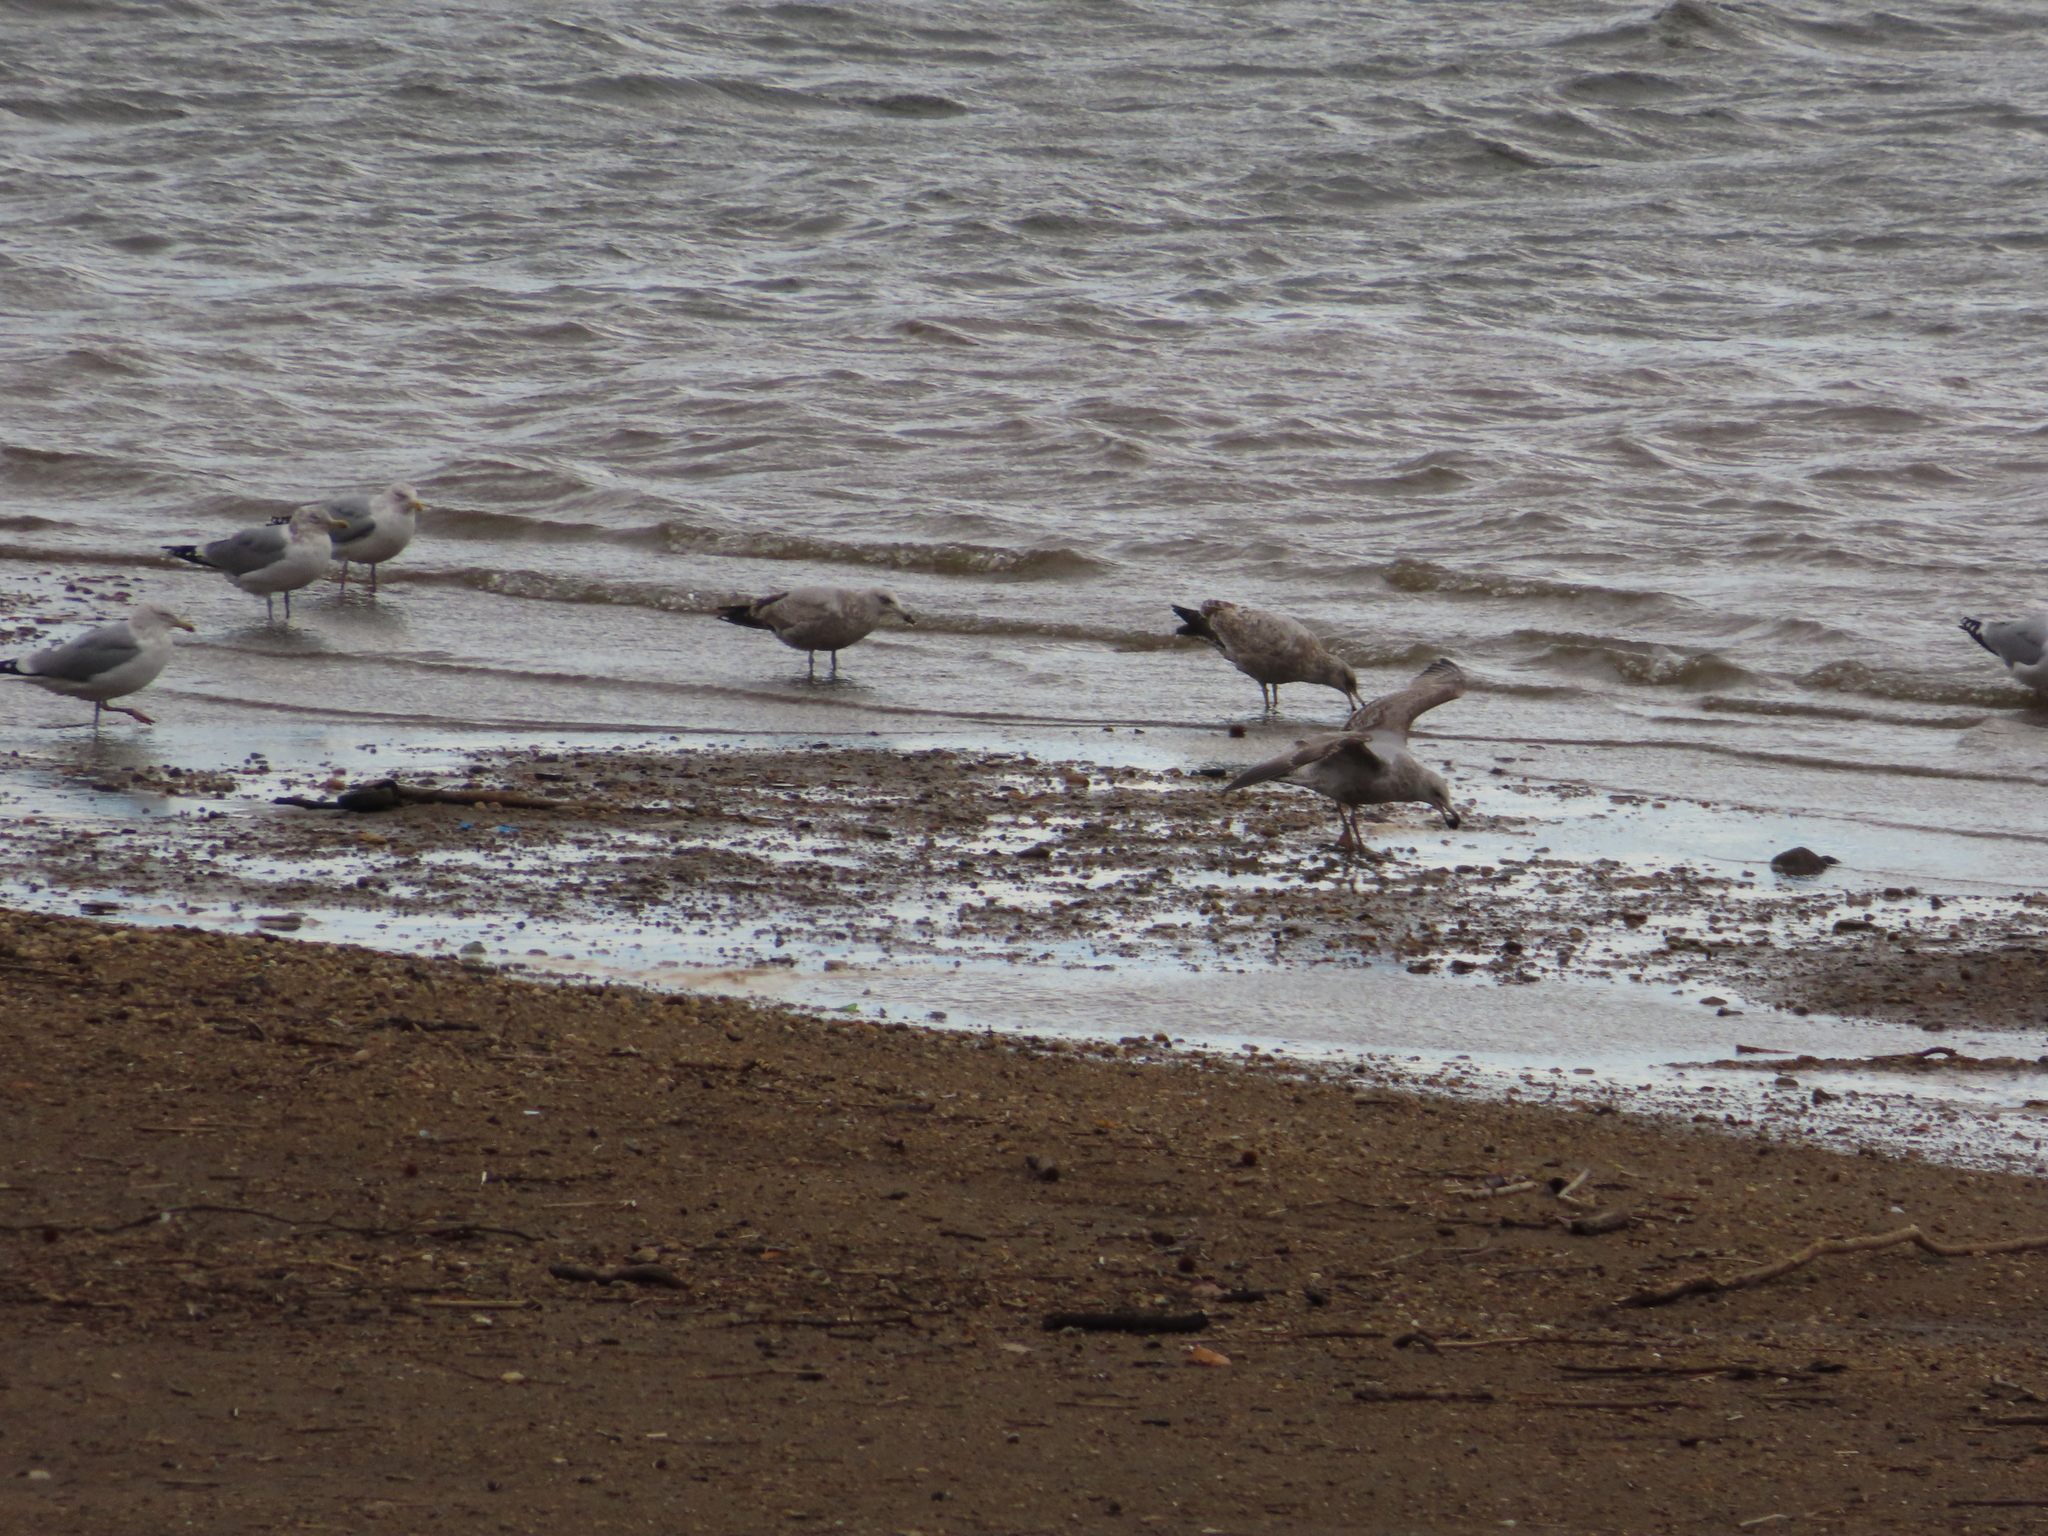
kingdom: Animalia
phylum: Chordata
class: Aves
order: Charadriiformes
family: Laridae
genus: Larus
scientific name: Larus argentatus
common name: Herring gull
